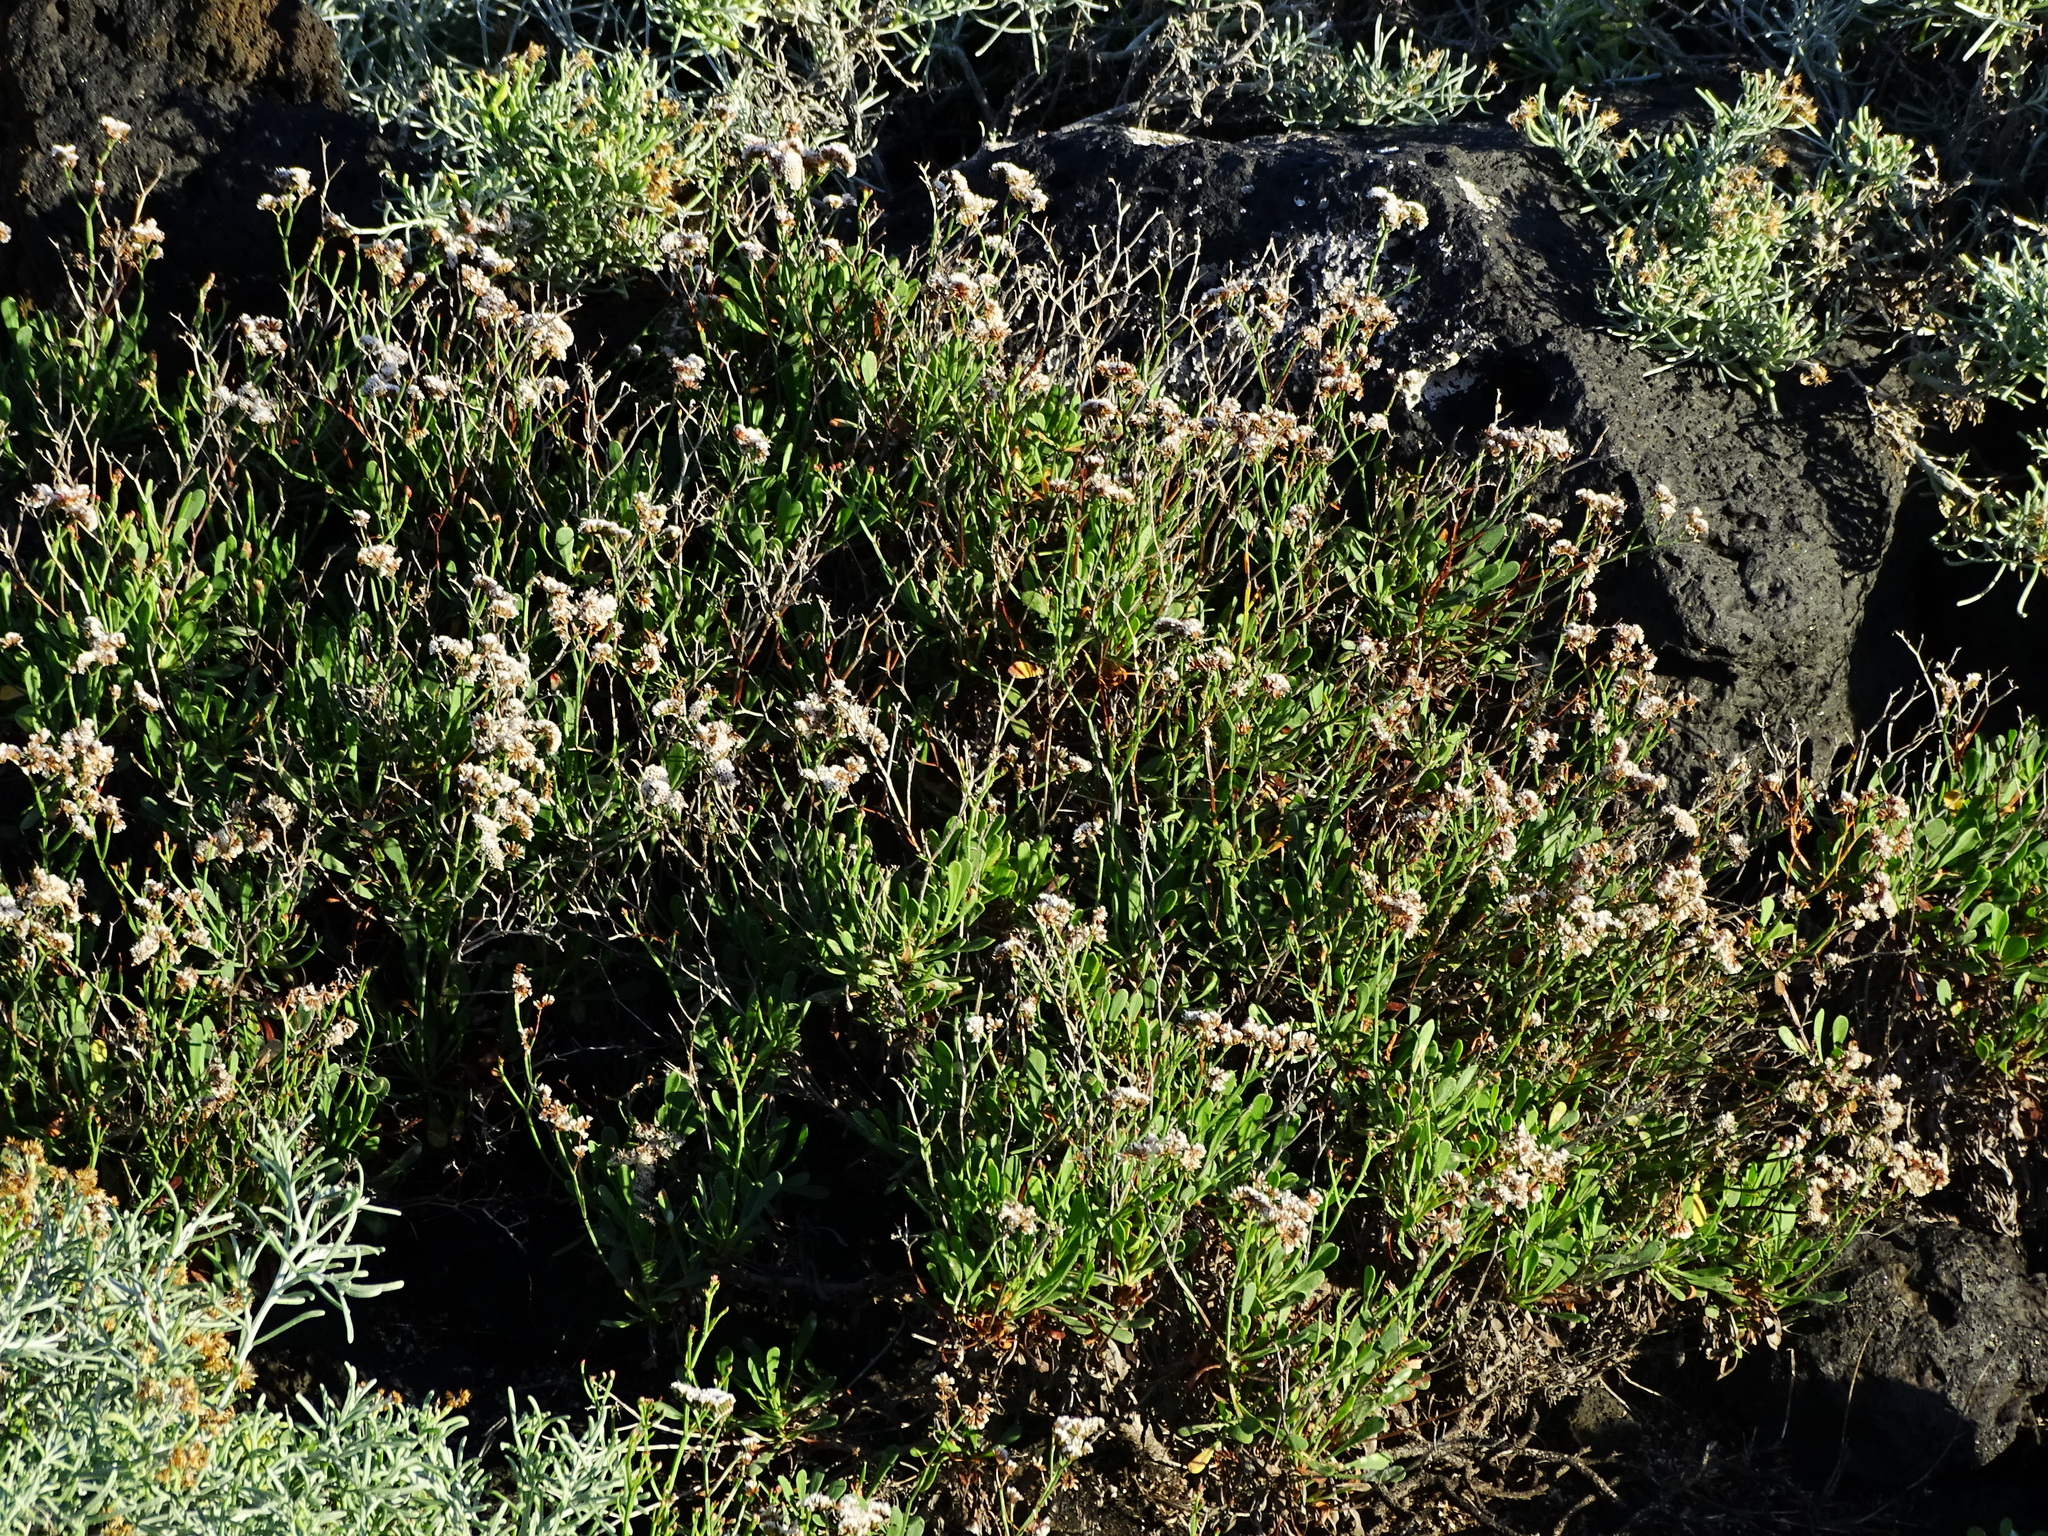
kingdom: Plantae
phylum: Tracheophyta
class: Magnoliopsida
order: Caryophyllales
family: Plumbaginaceae
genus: Limonium
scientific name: Limonium pectinatum
